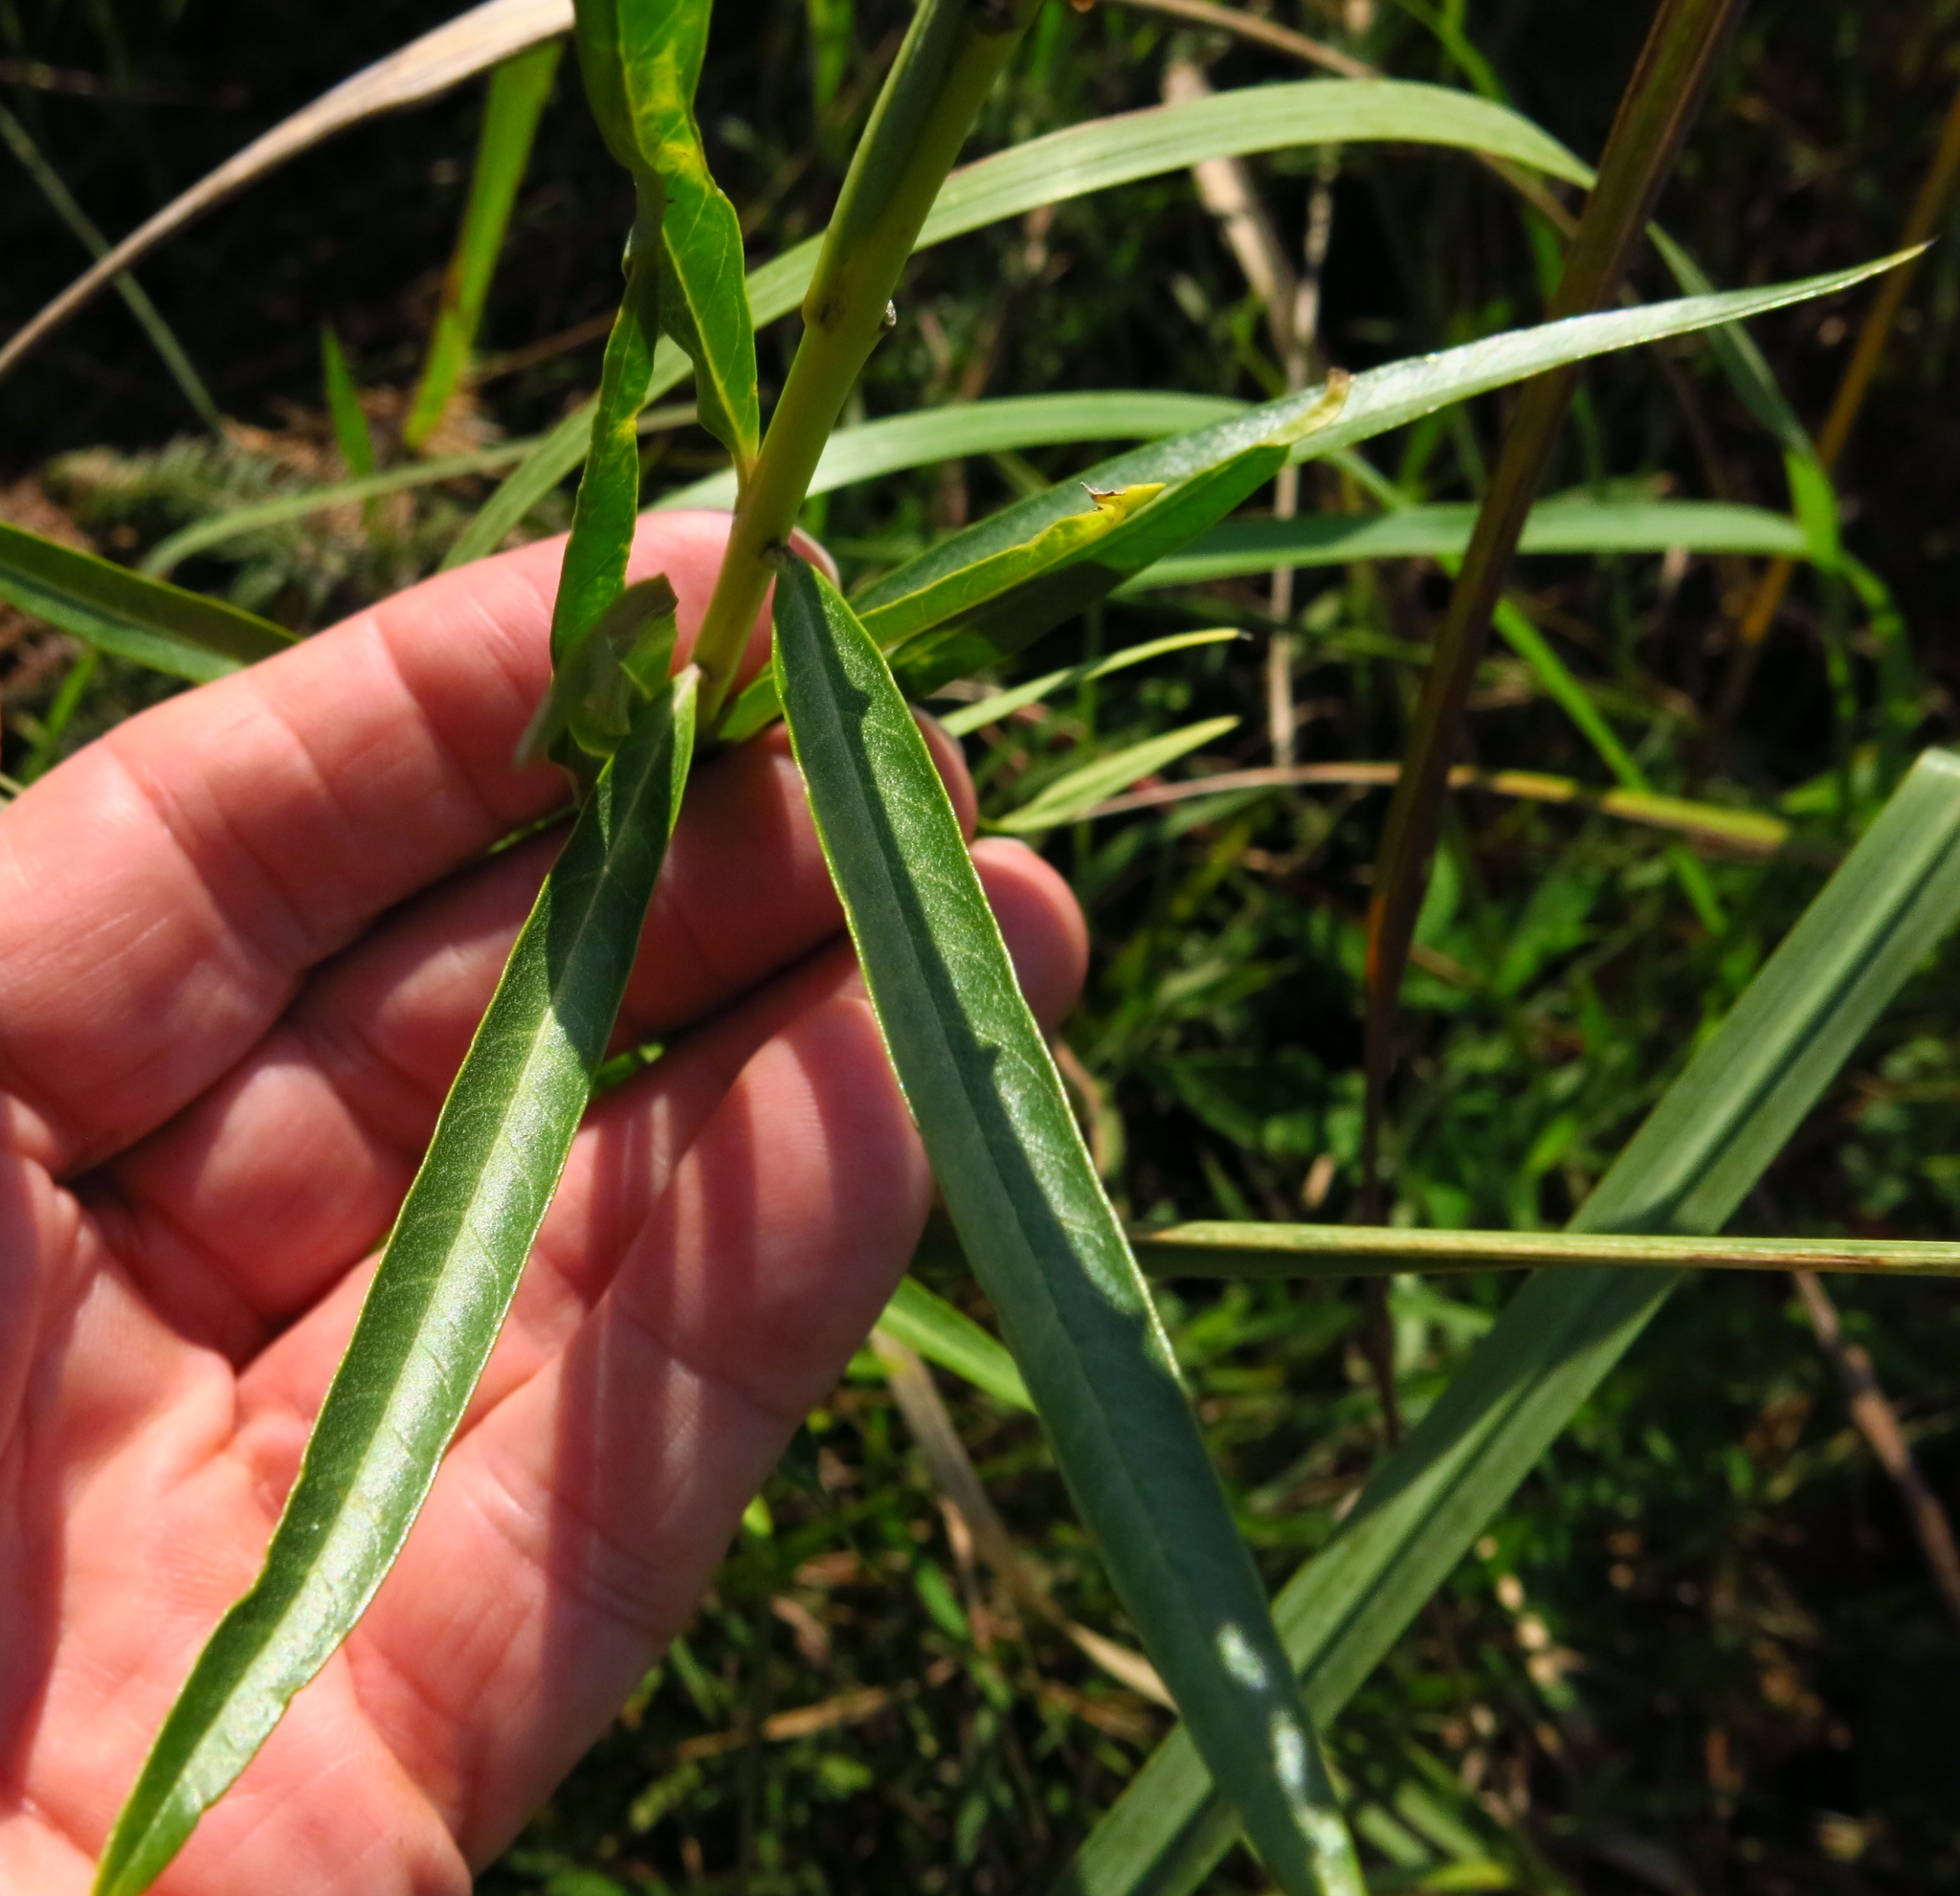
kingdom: Plantae
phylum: Tracheophyta
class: Magnoliopsida
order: Gentianales
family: Apocynaceae
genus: Gomphocarpus
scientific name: Gomphocarpus physocarpus
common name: Balloon cotton bush
